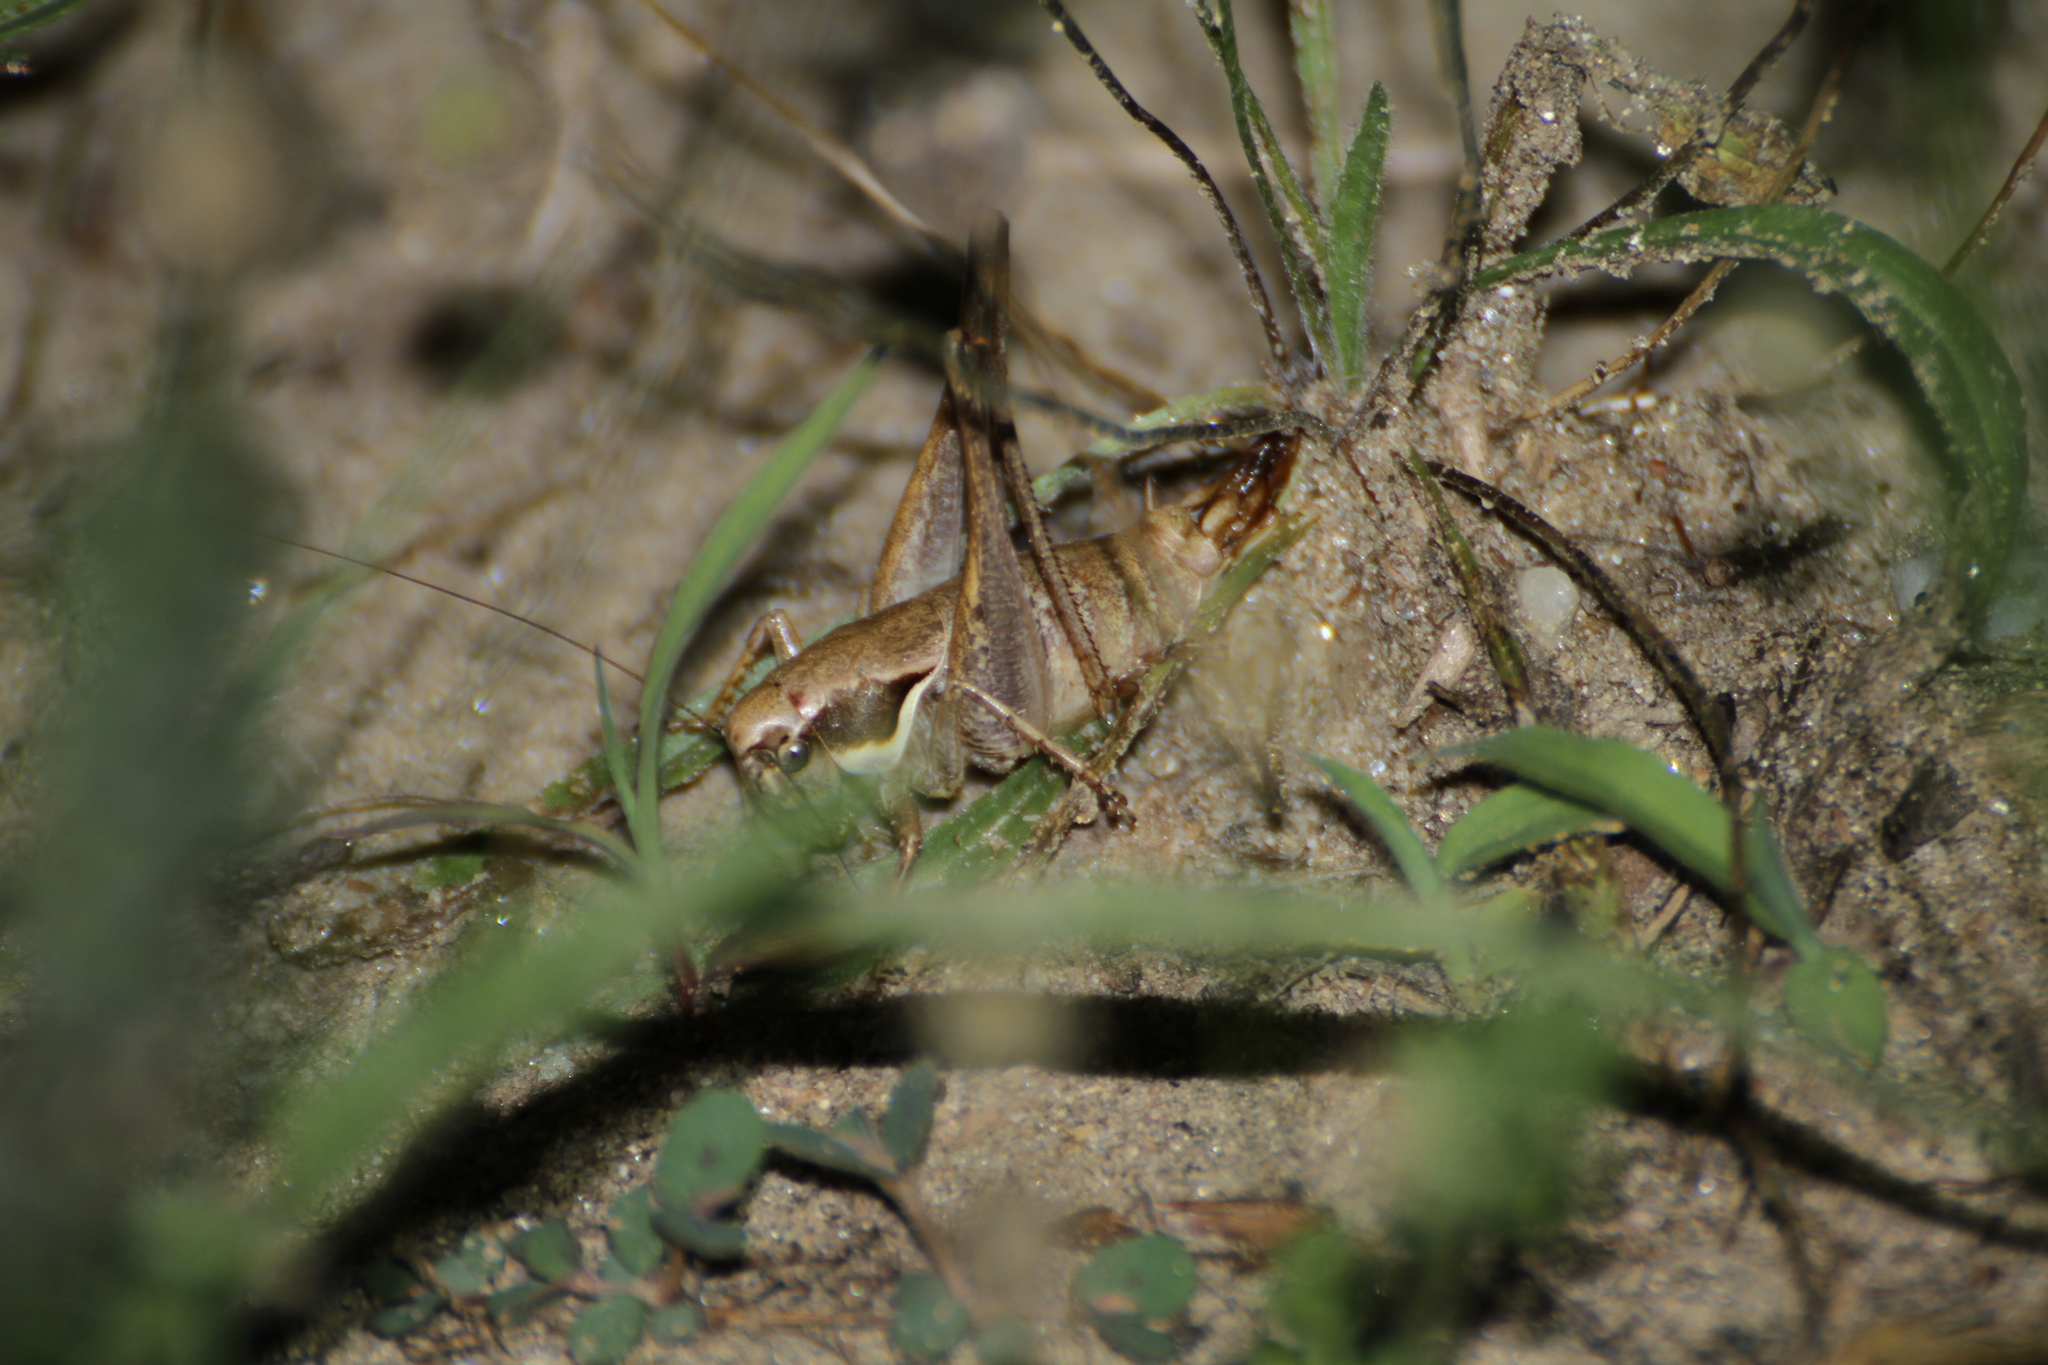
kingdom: Animalia
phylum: Arthropoda
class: Insecta
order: Orthoptera
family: Tettigoniidae
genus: Pholidoptera
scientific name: Pholidoptera femorata
